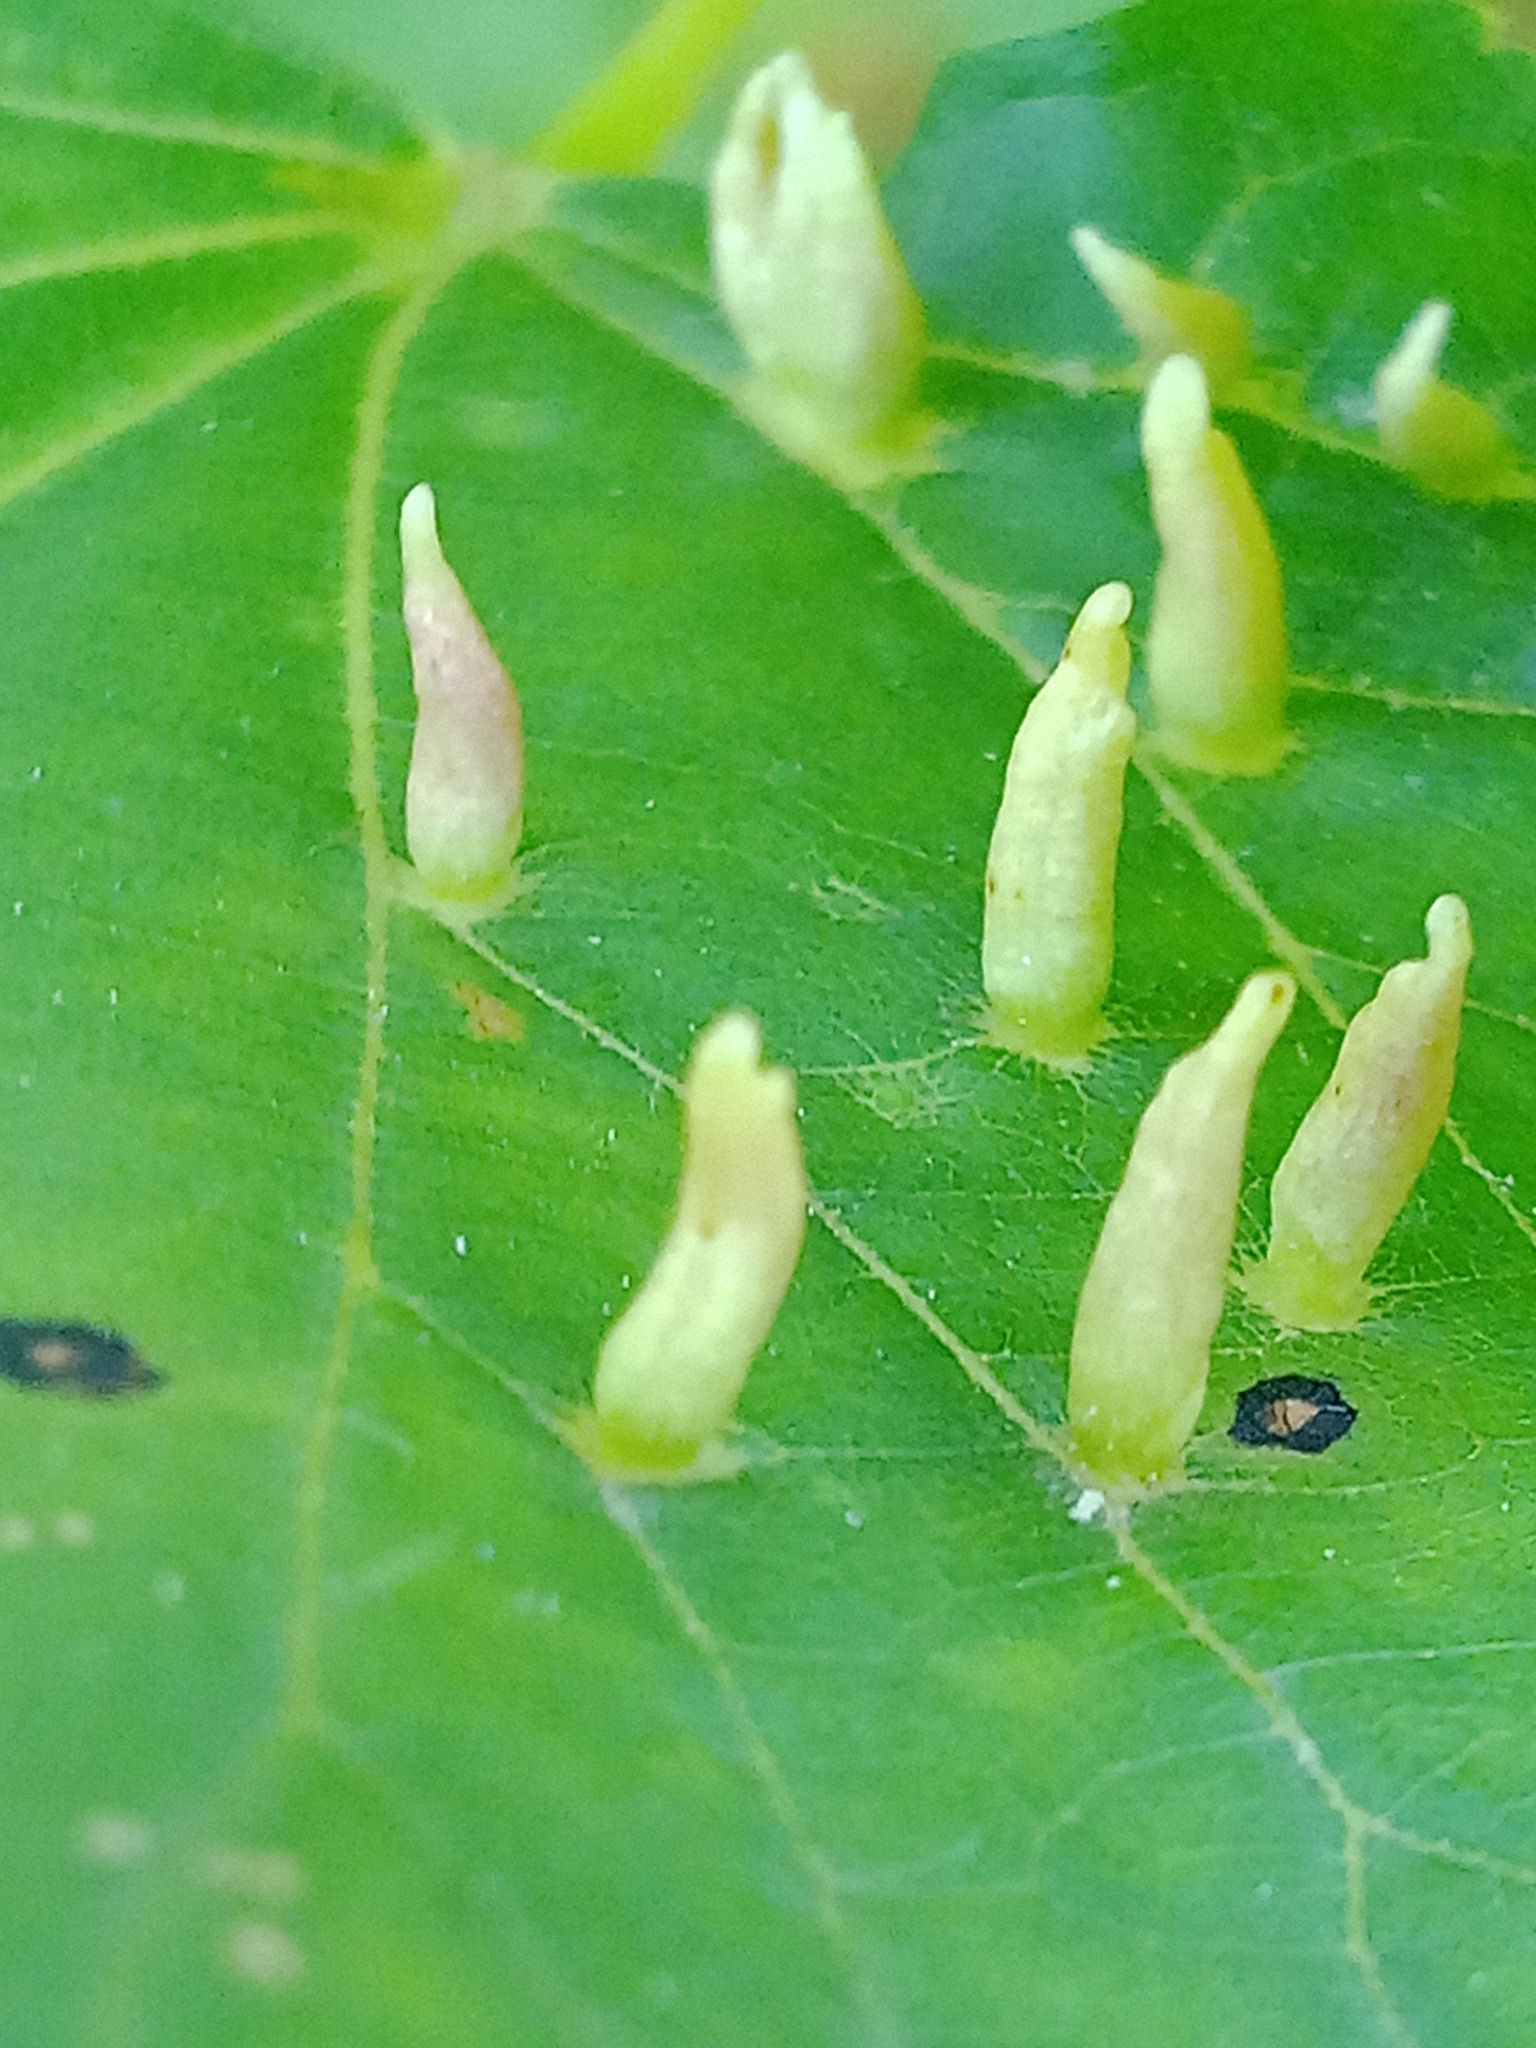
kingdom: Animalia
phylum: Arthropoda
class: Arachnida
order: Trombidiformes
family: Eriophyidae
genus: Eriophyes
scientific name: Eriophyes tiliae
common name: Red nail gall mite
